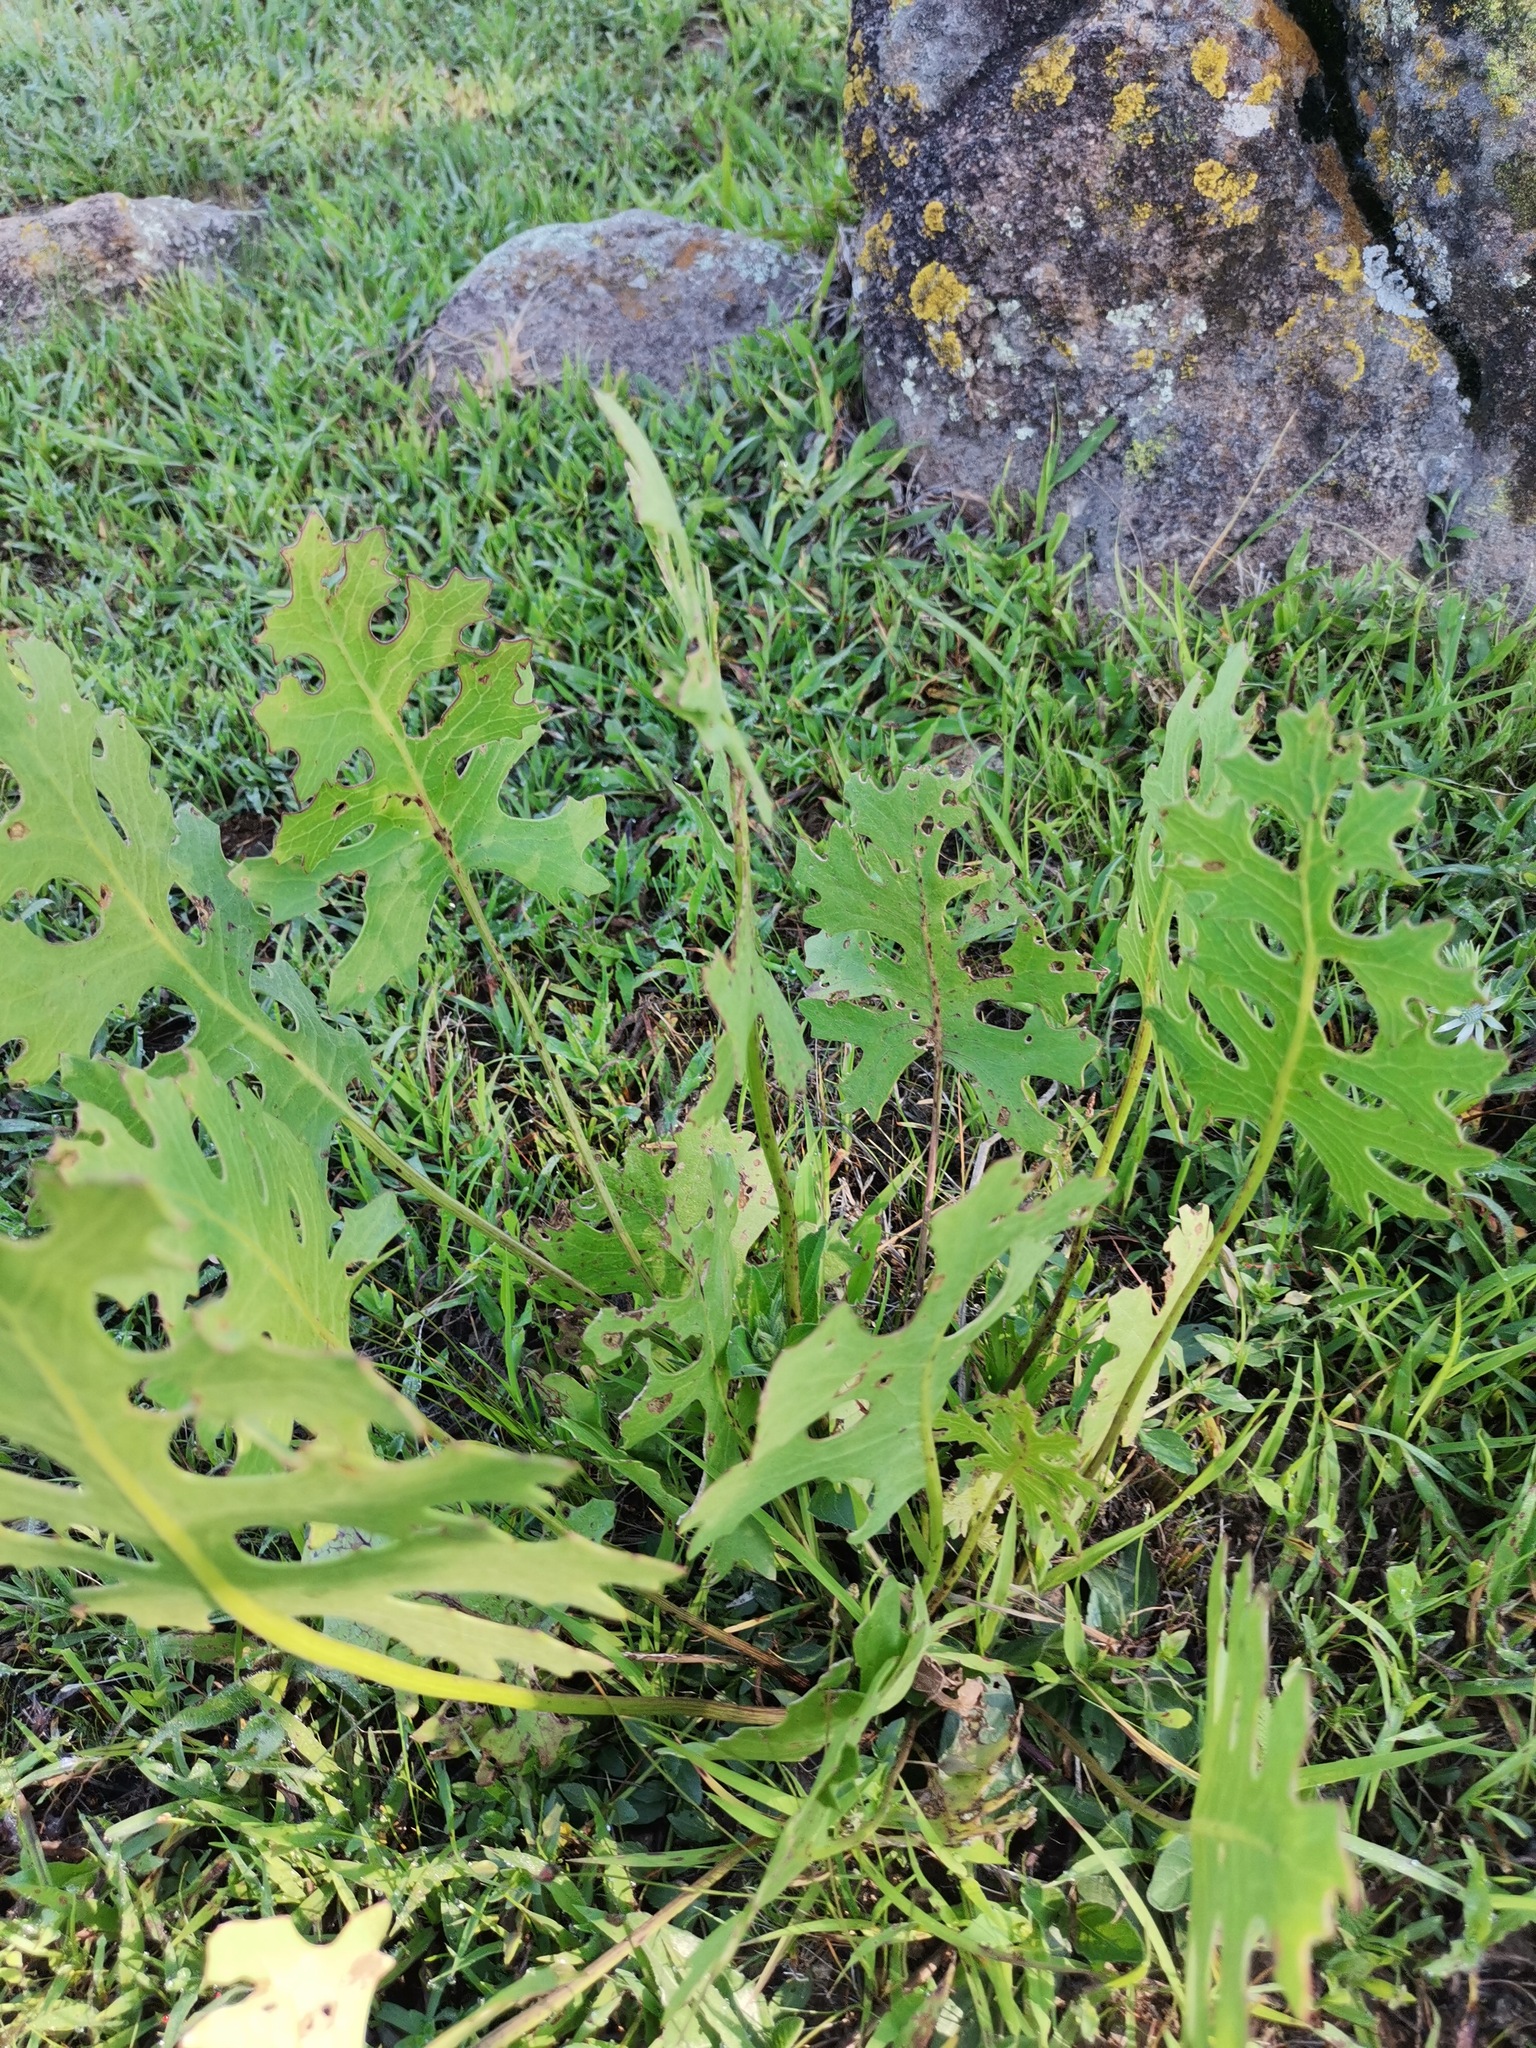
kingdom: Plantae
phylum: Tracheophyta
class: Magnoliopsida
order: Asterales
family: Asteraceae
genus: Psacalium
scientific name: Psacalium sinuatum
